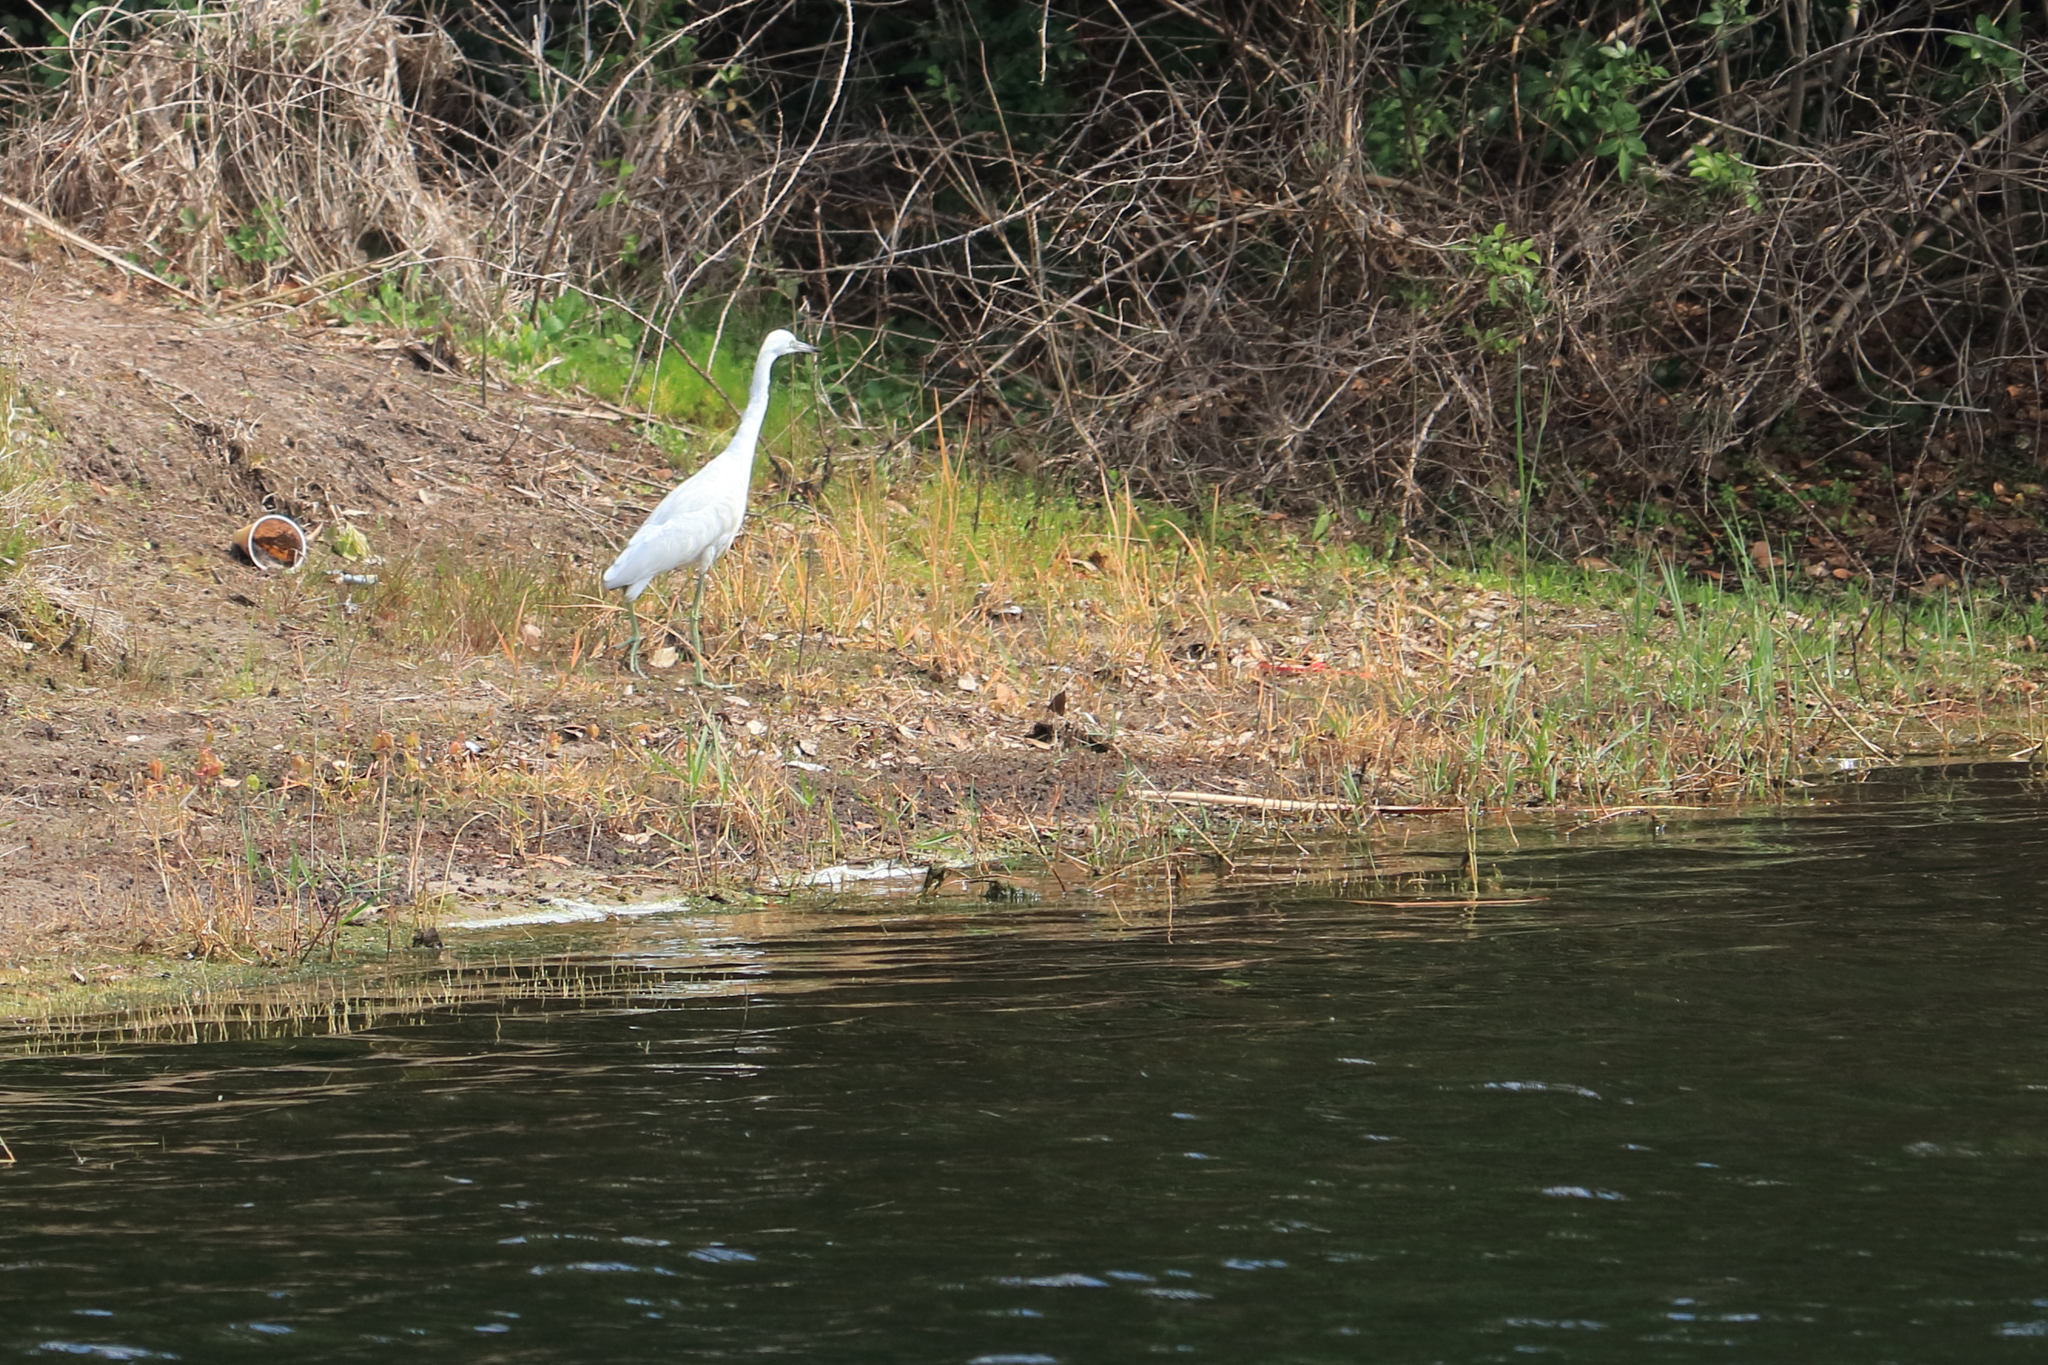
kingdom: Animalia
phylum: Chordata
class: Aves
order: Pelecaniformes
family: Ardeidae
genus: Egretta
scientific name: Egretta caerulea
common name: Little blue heron
